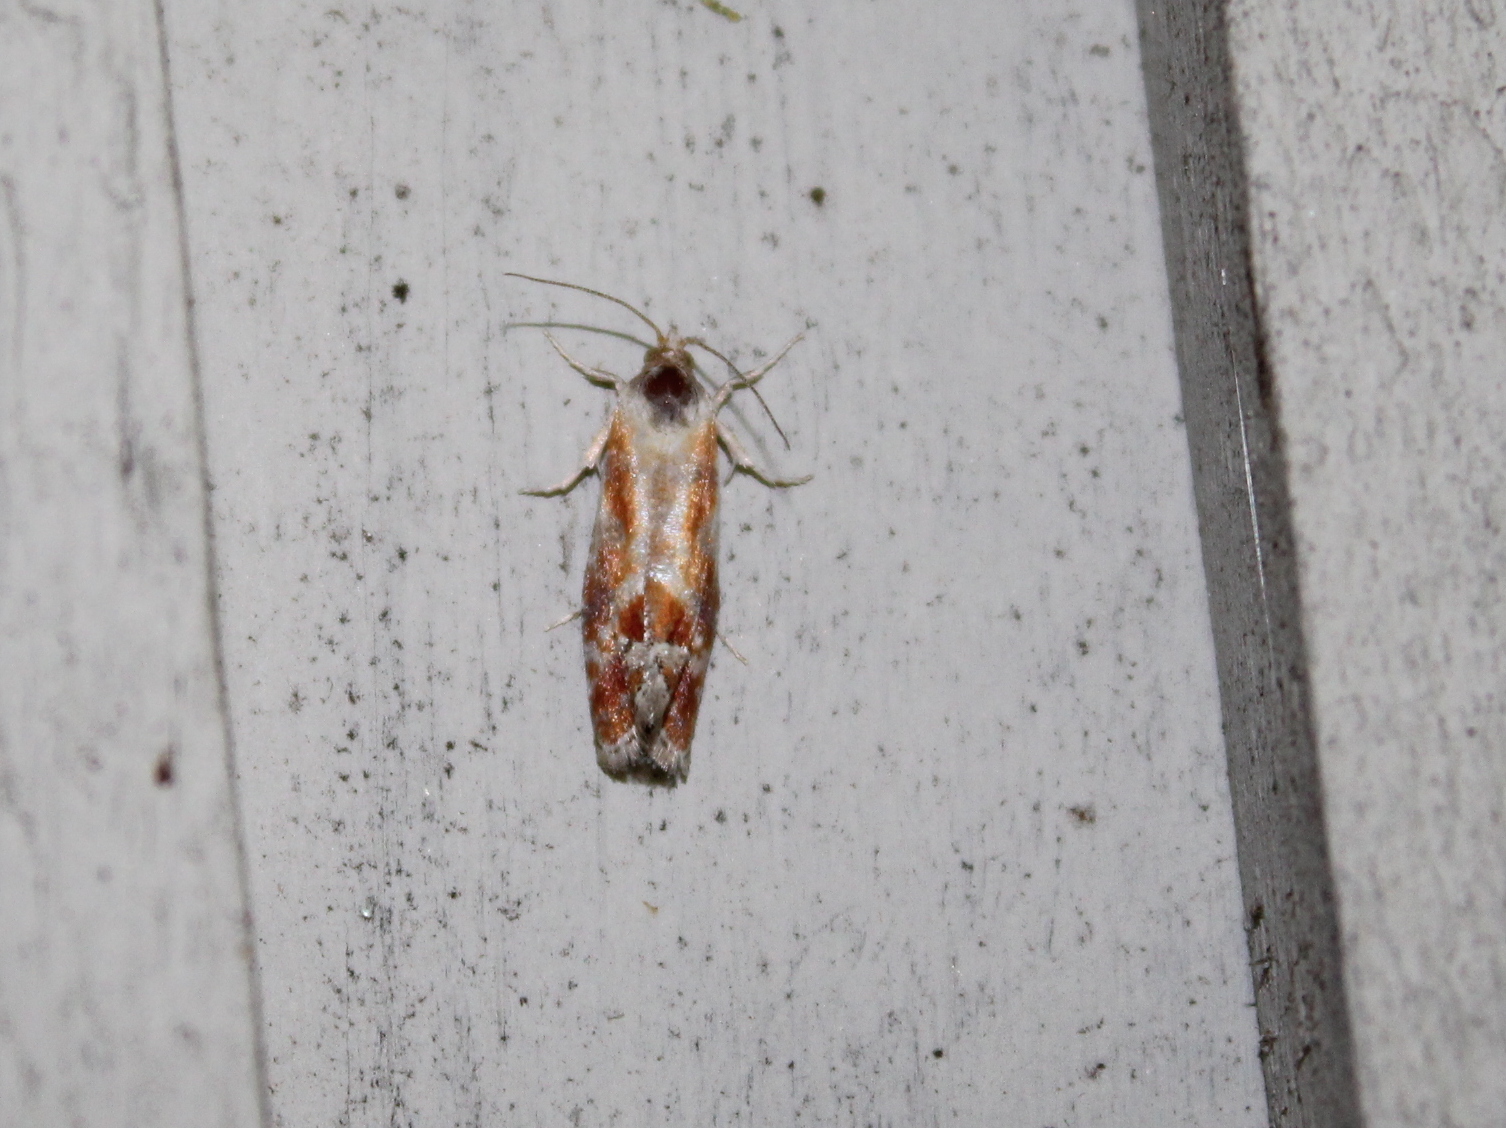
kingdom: Animalia
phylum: Arthropoda
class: Insecta
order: Lepidoptera
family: Tortricidae
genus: Rhyacionia
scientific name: Rhyacionia buoliana
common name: European pine shoot moth
